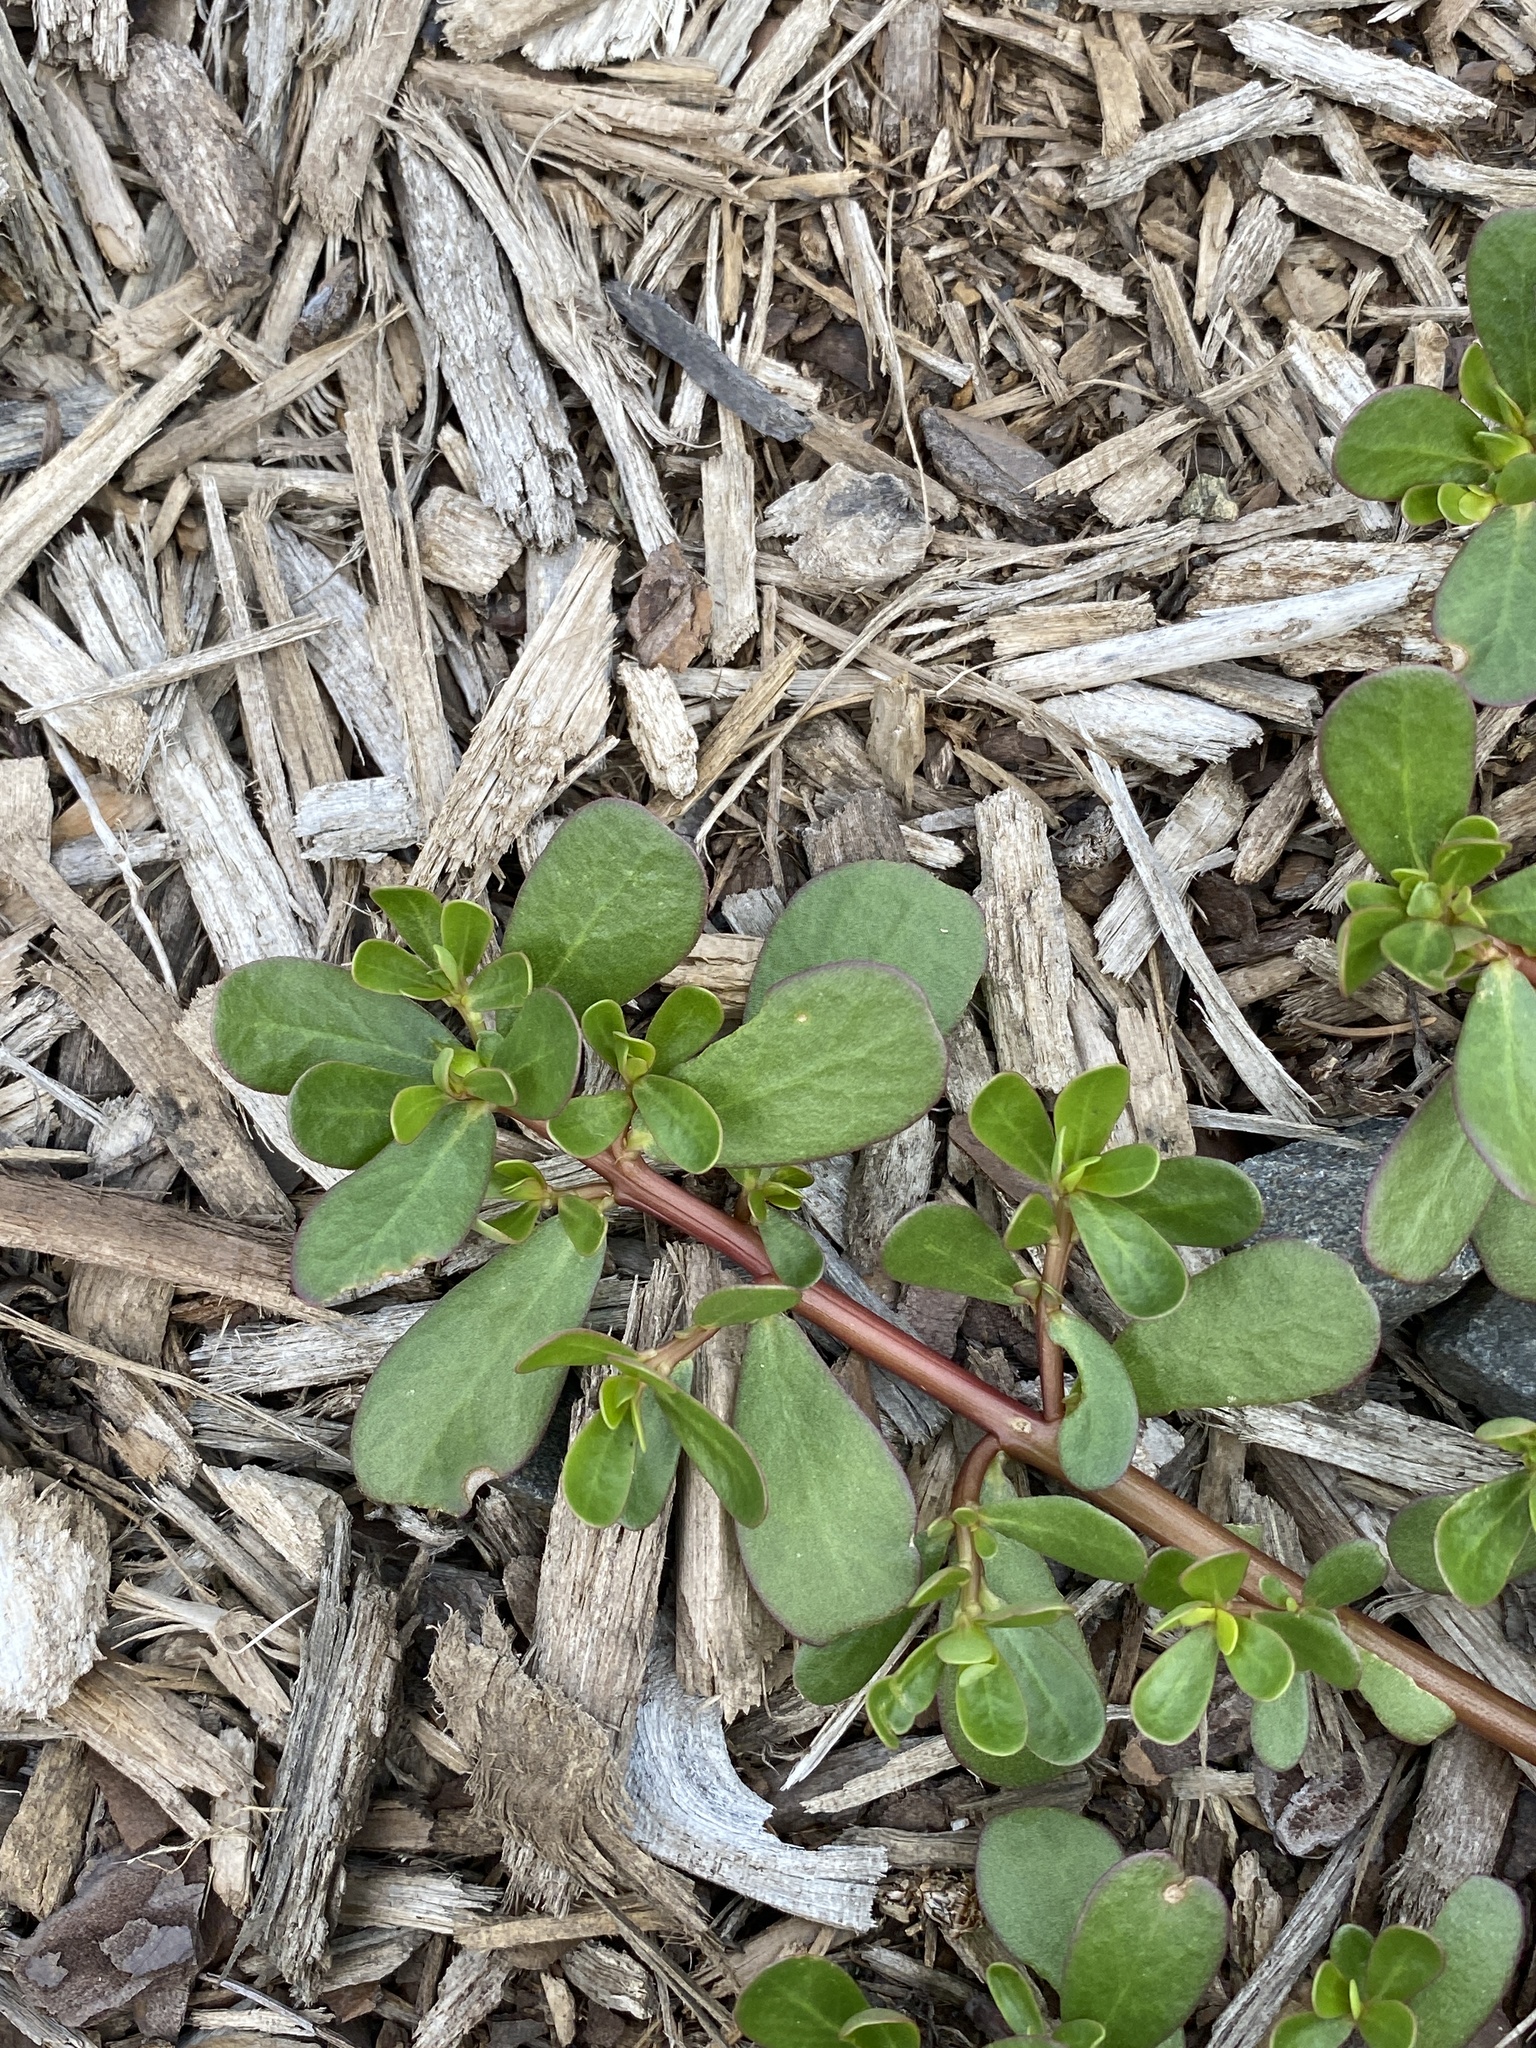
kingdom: Plantae
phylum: Tracheophyta
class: Magnoliopsida
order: Caryophyllales
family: Portulacaceae
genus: Portulaca
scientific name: Portulaca oleracea
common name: Common purslane
